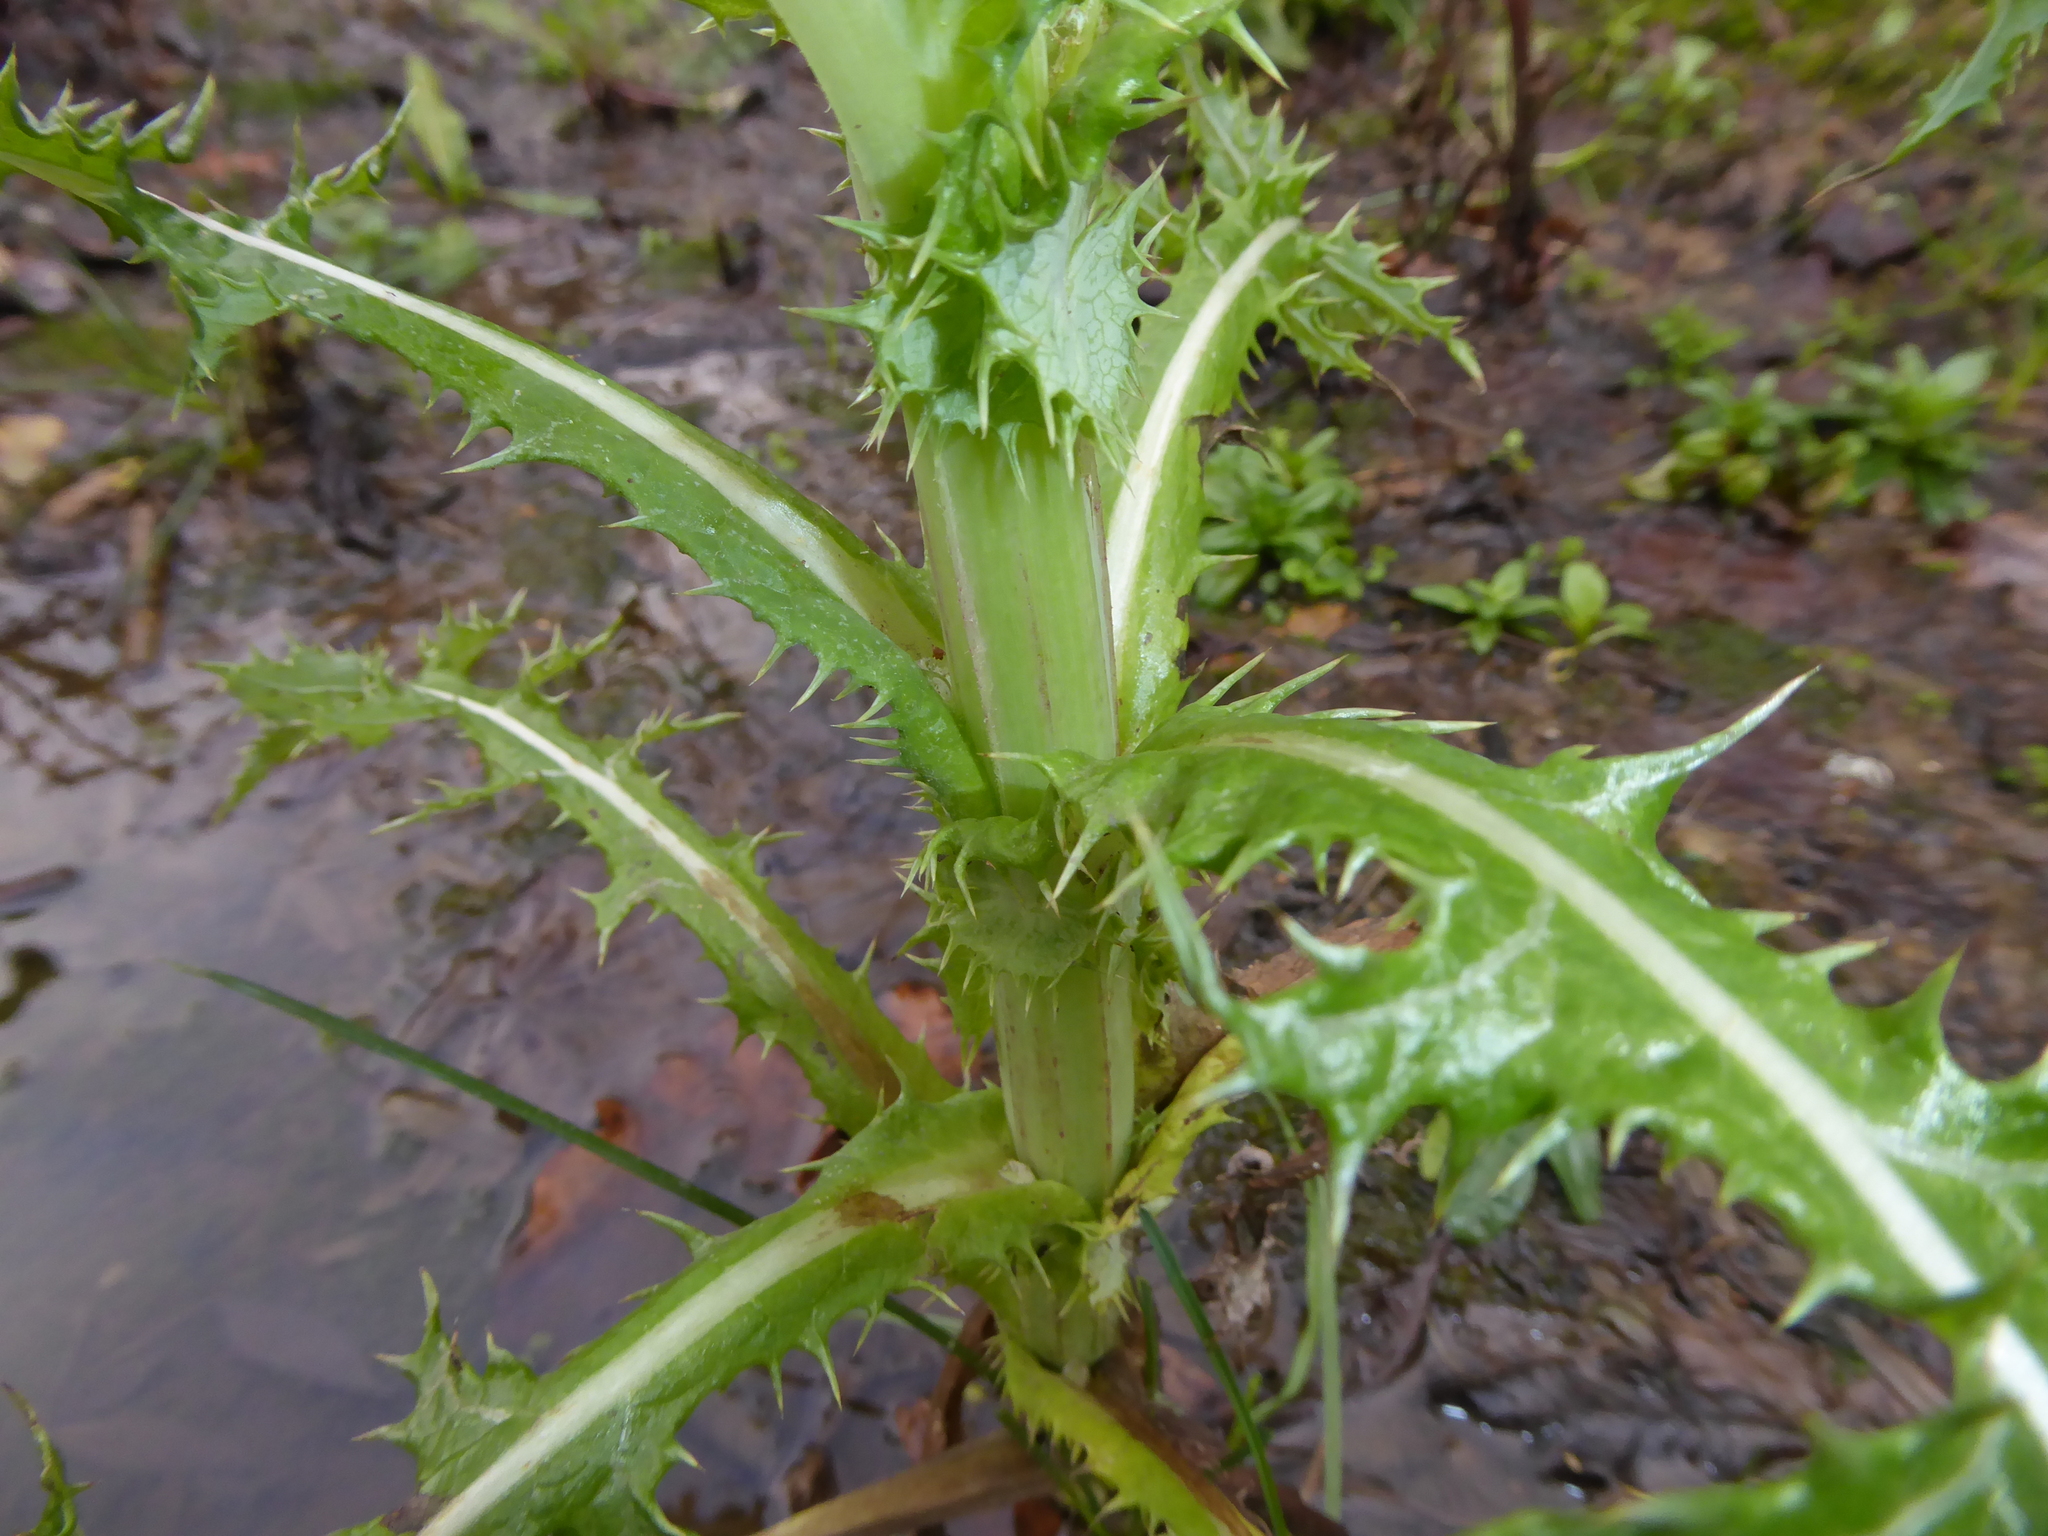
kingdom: Plantae
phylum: Tracheophyta
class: Magnoliopsida
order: Asterales
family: Asteraceae
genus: Sonchus
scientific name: Sonchus asper
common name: Prickly sow-thistle
